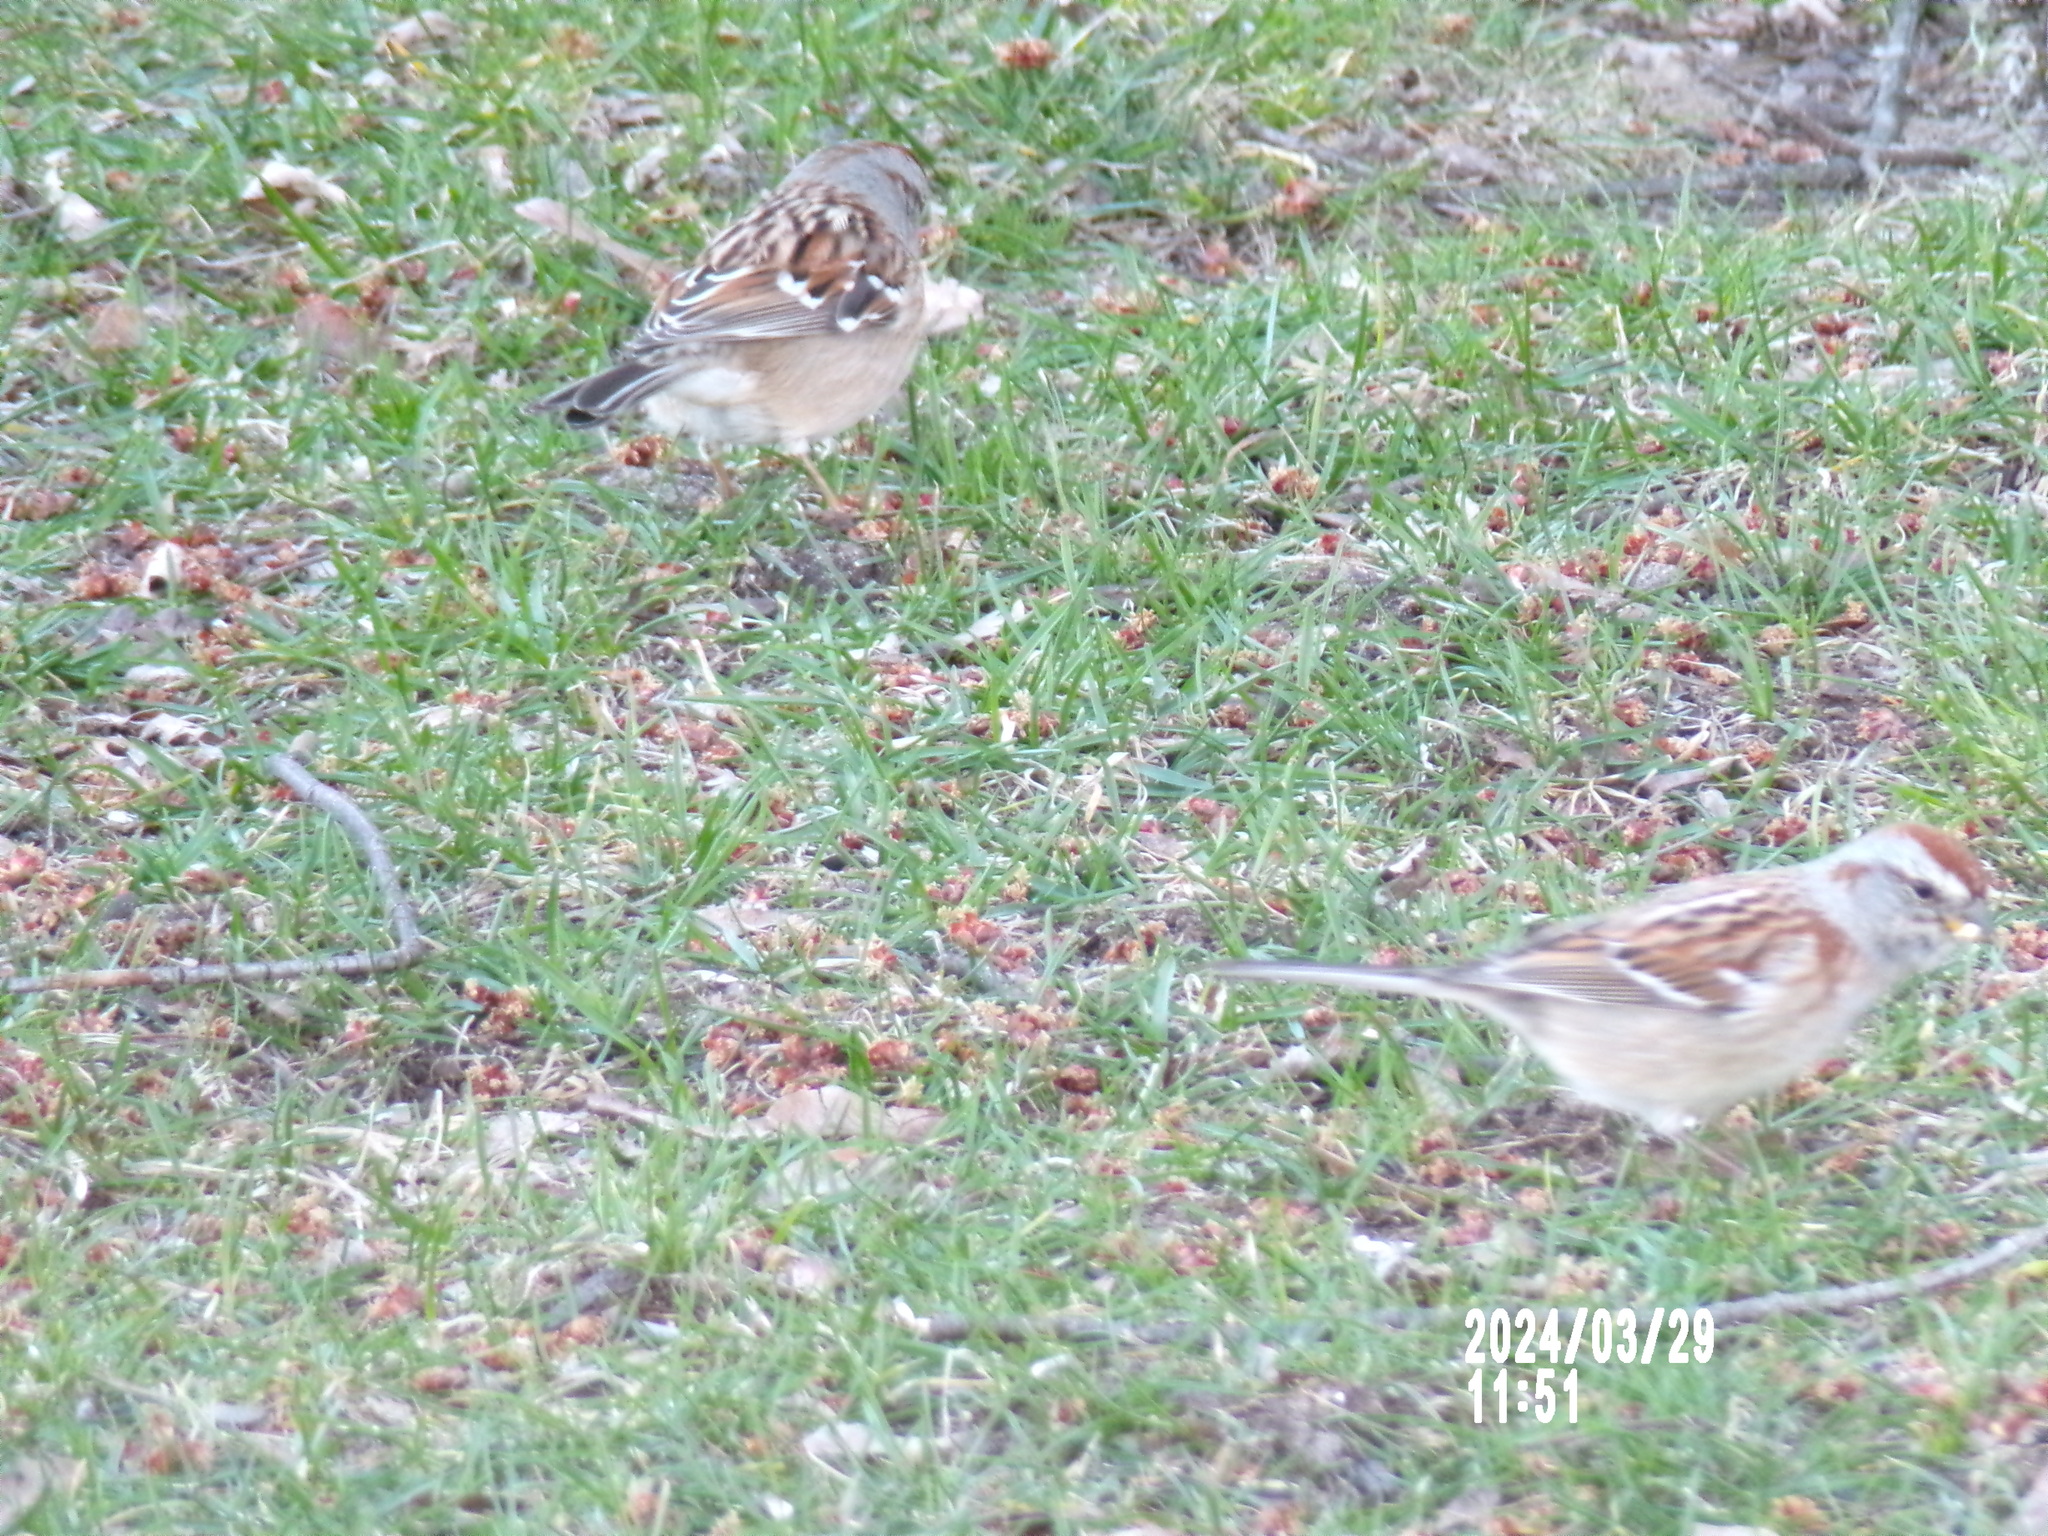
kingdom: Animalia
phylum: Chordata
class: Aves
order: Passeriformes
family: Passerellidae
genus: Spizelloides
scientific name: Spizelloides arborea
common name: American tree sparrow
